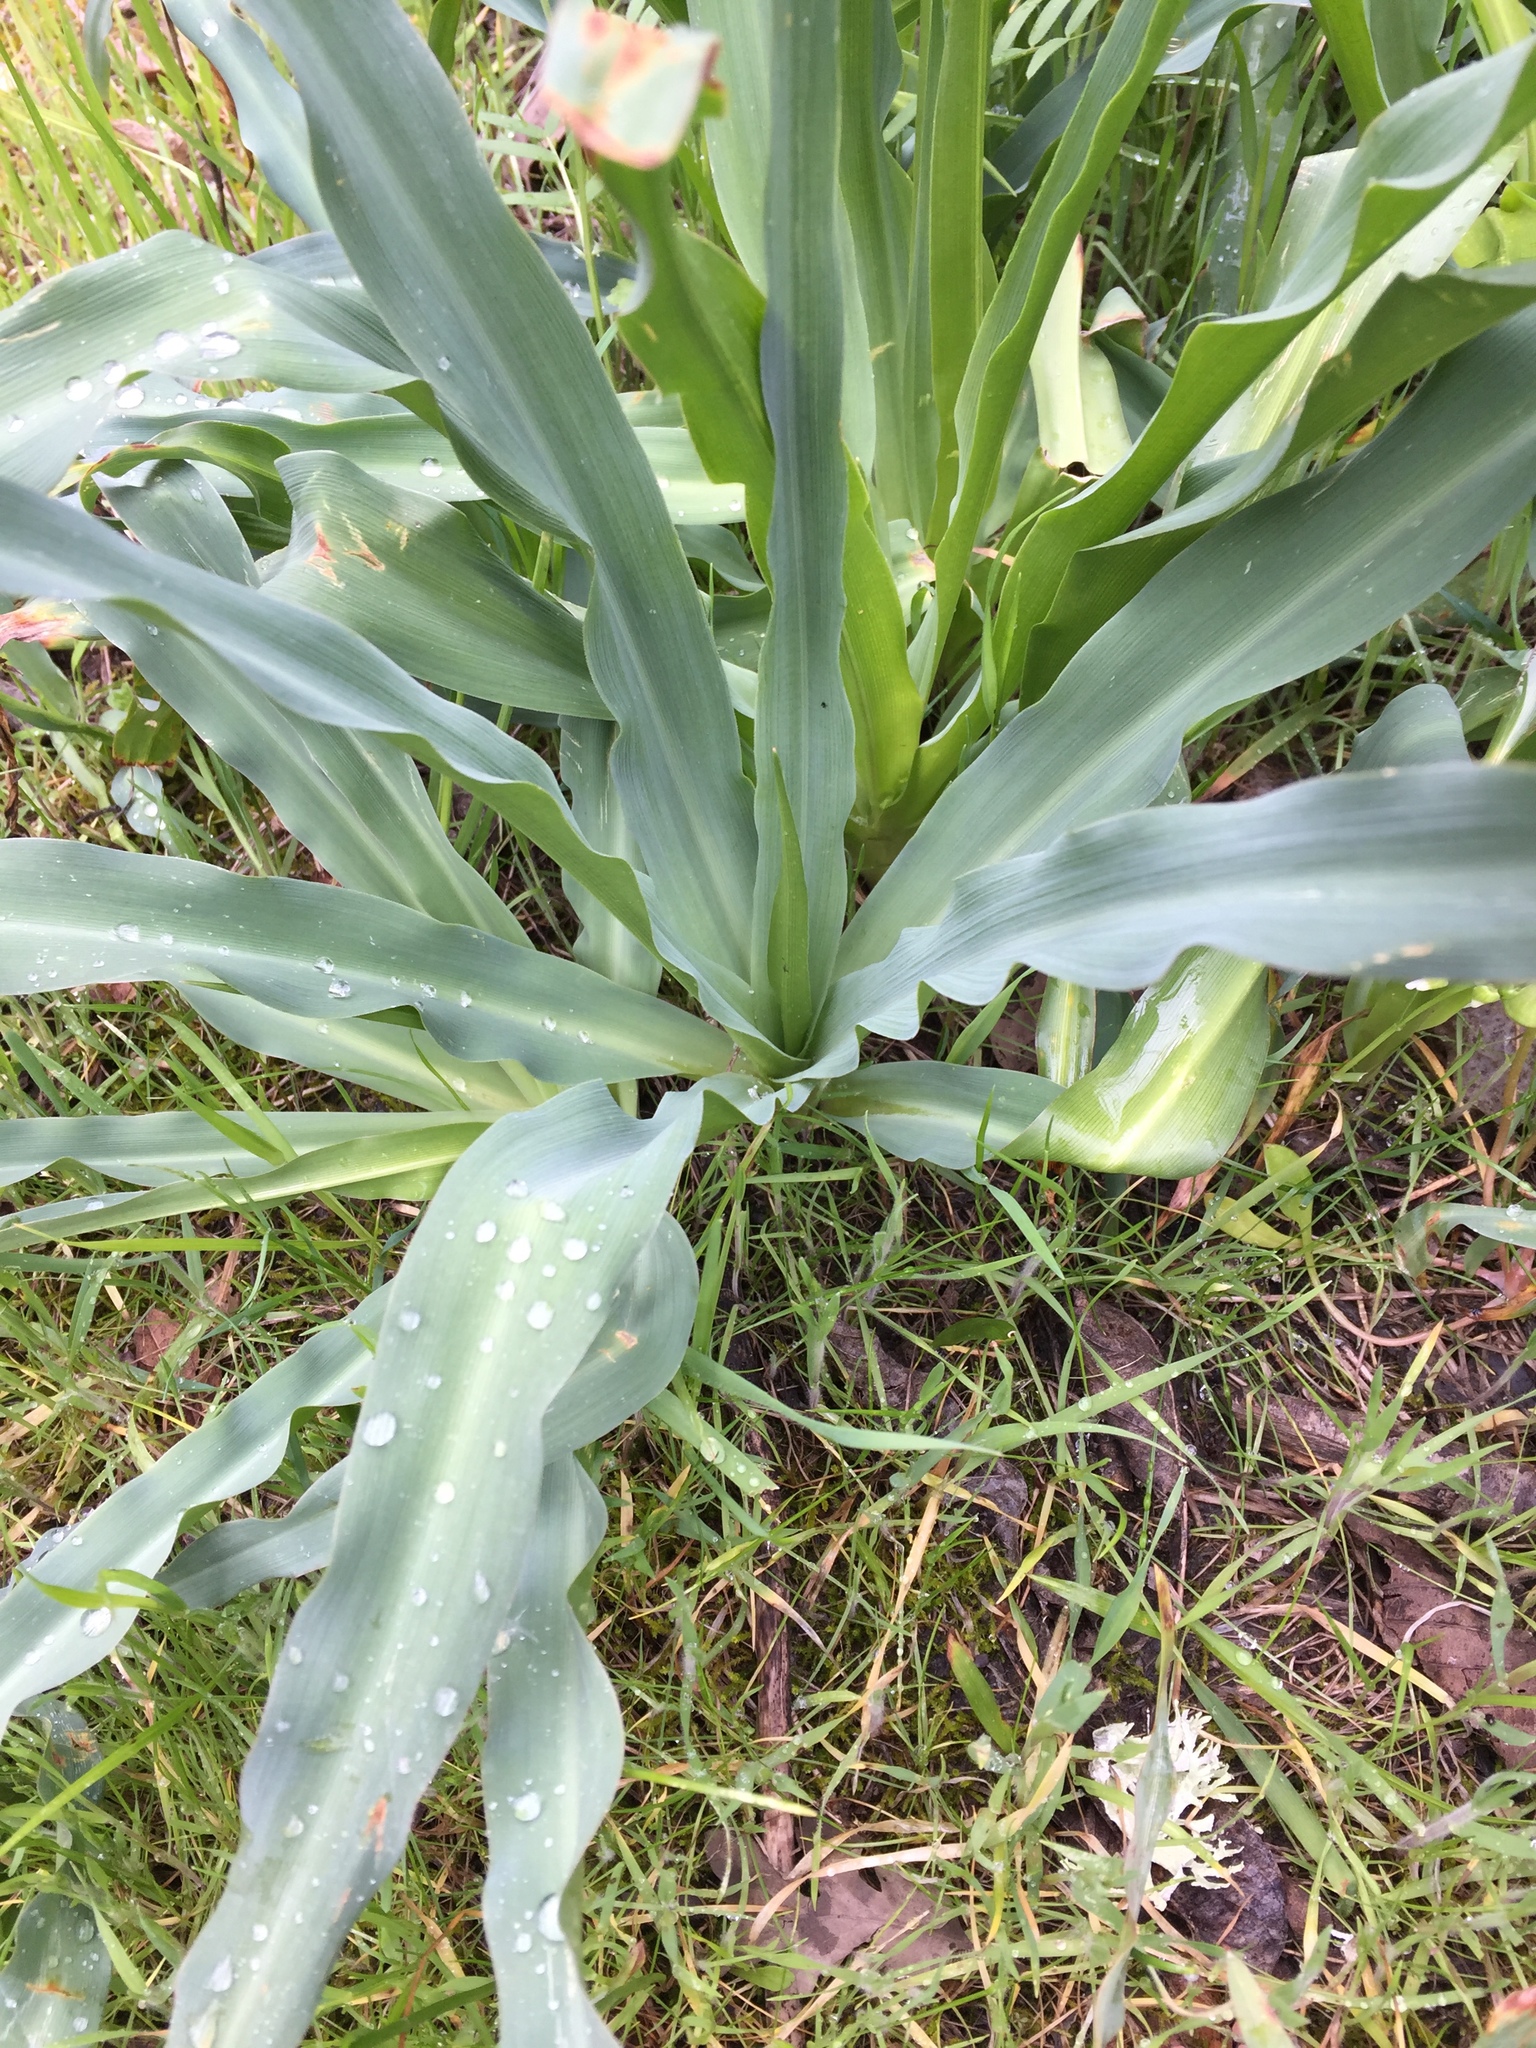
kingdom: Plantae
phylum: Tracheophyta
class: Liliopsida
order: Asparagales
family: Asparagaceae
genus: Chlorogalum
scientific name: Chlorogalum pomeridianum
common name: Amole
